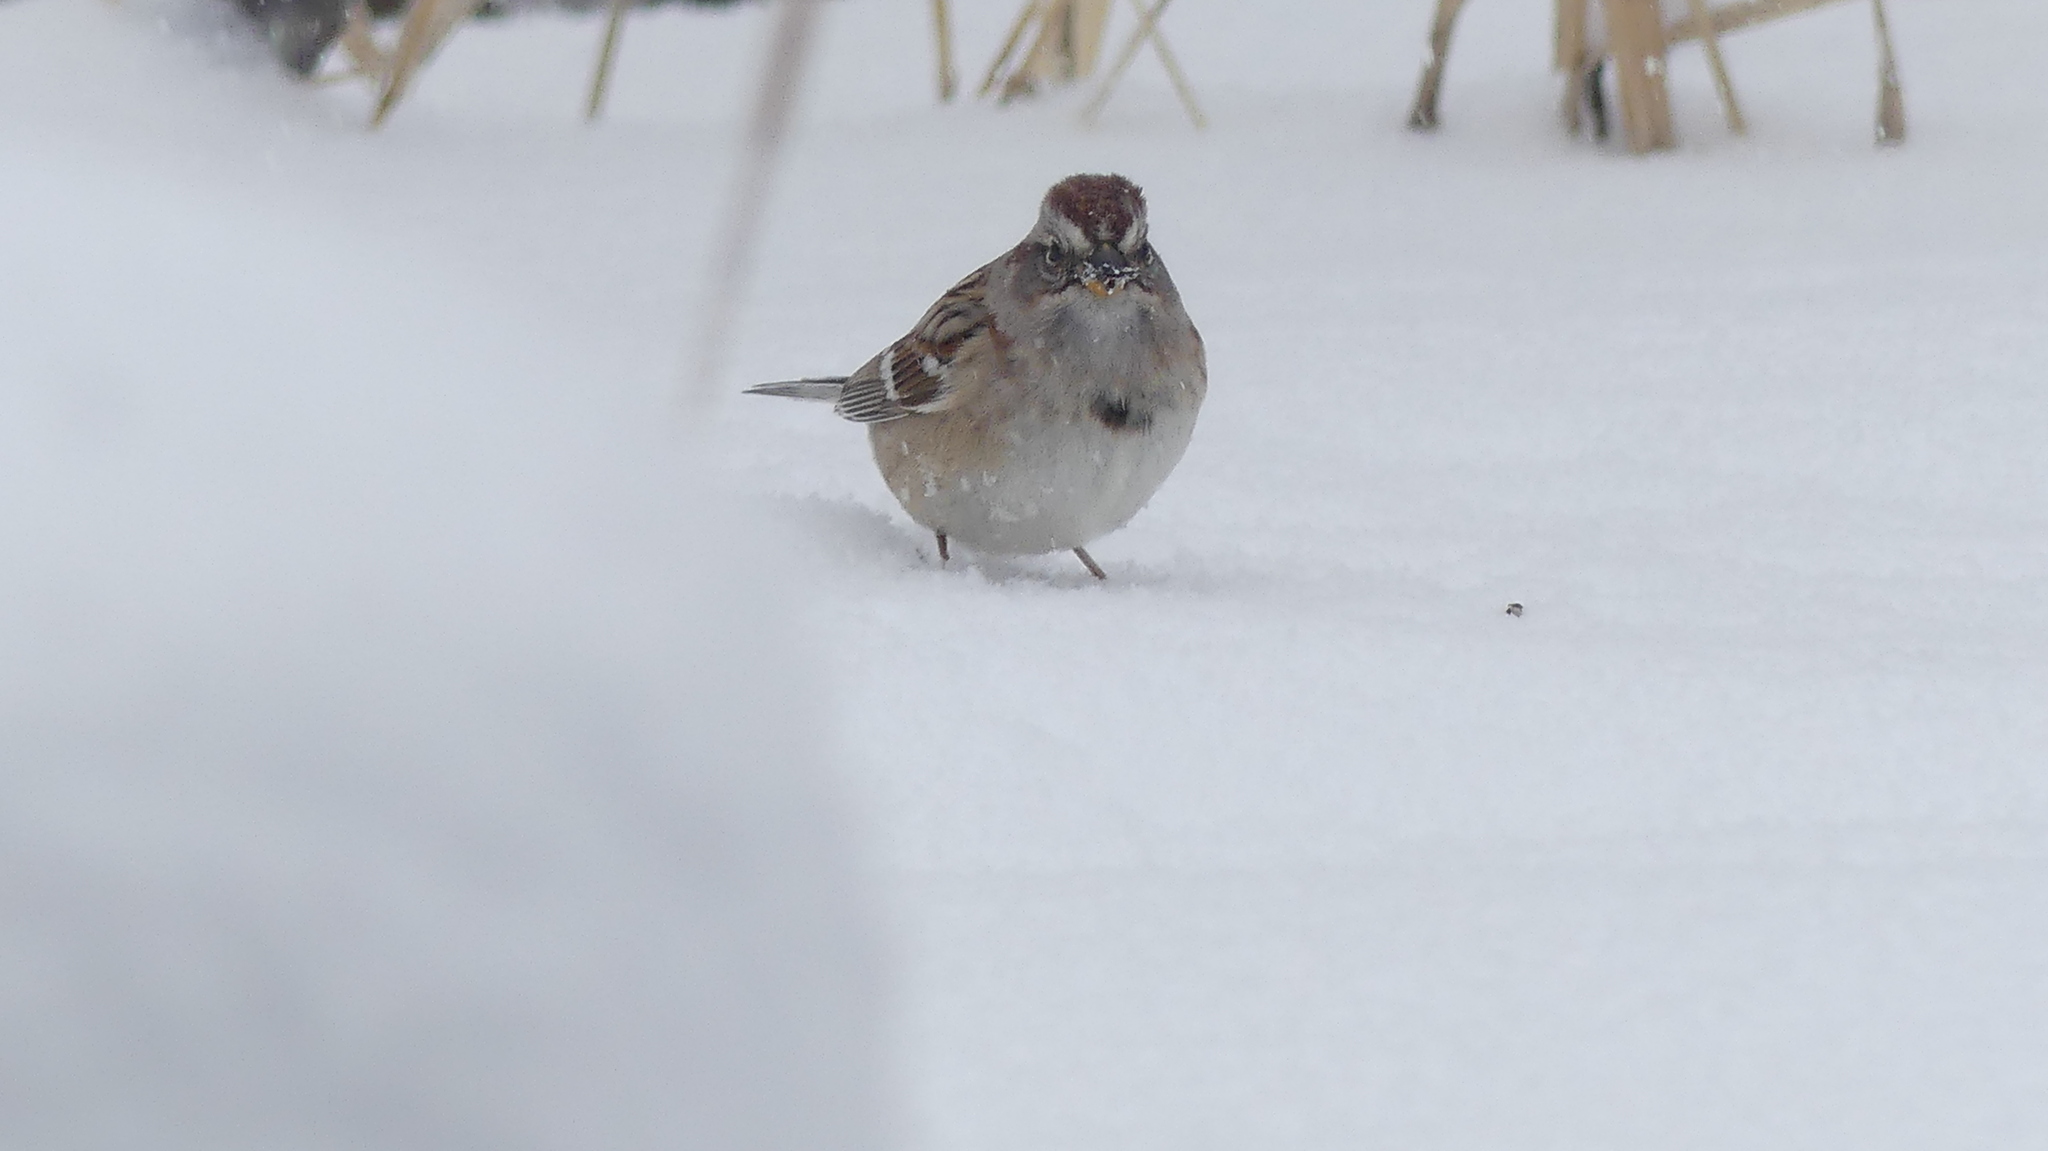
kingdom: Animalia
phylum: Chordata
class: Aves
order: Passeriformes
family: Passerellidae
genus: Spizelloides
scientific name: Spizelloides arborea
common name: American tree sparrow
